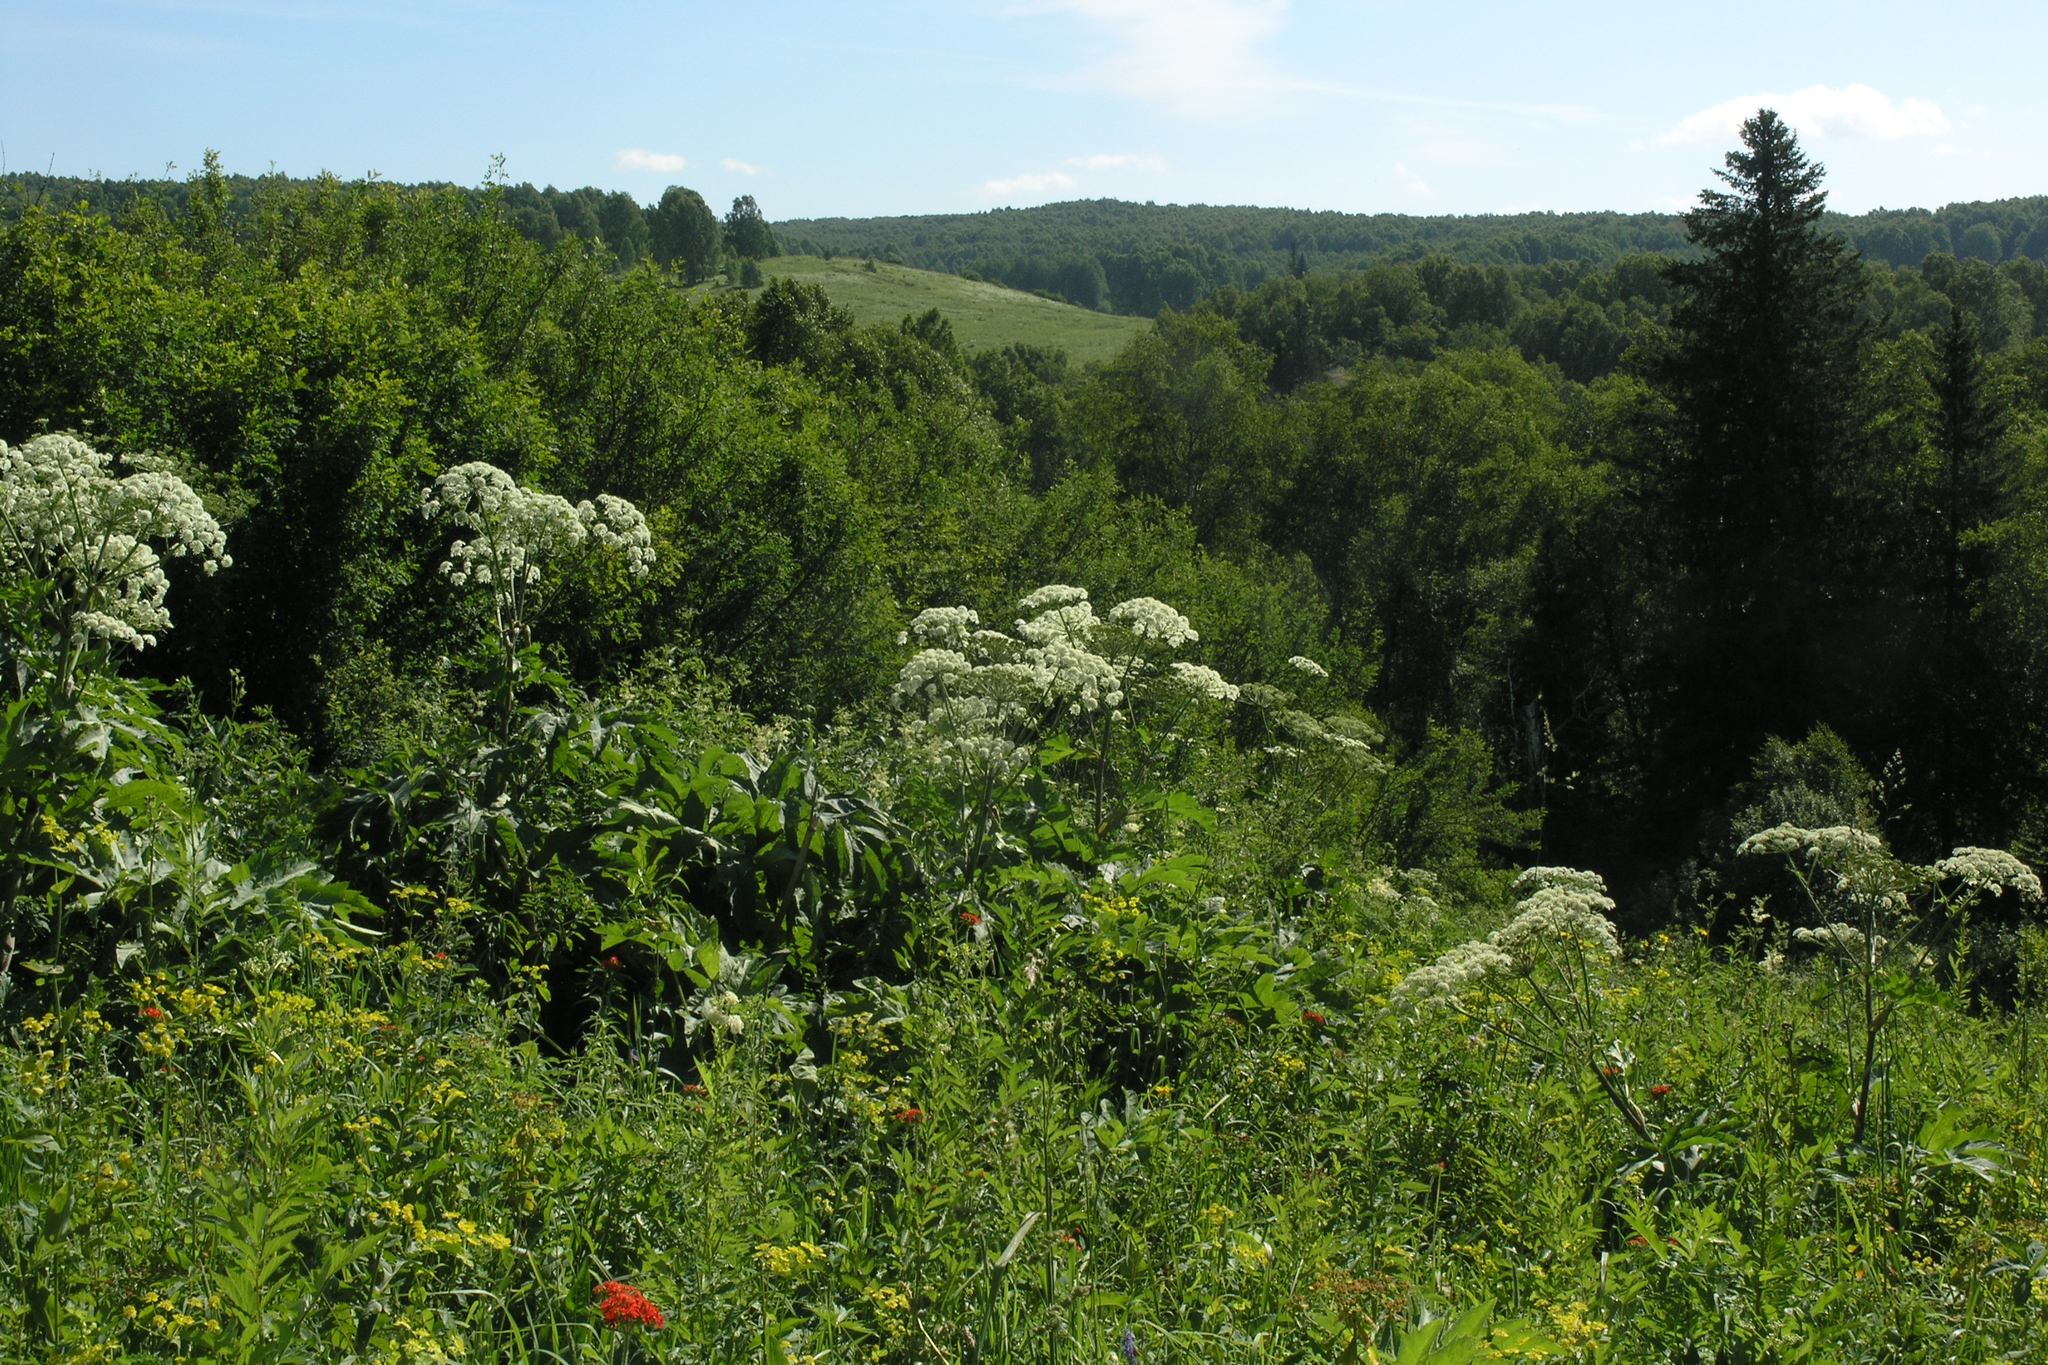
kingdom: Plantae
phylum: Tracheophyta
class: Magnoliopsida
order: Apiales
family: Apiaceae
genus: Heracleum
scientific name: Heracleum dissectum
